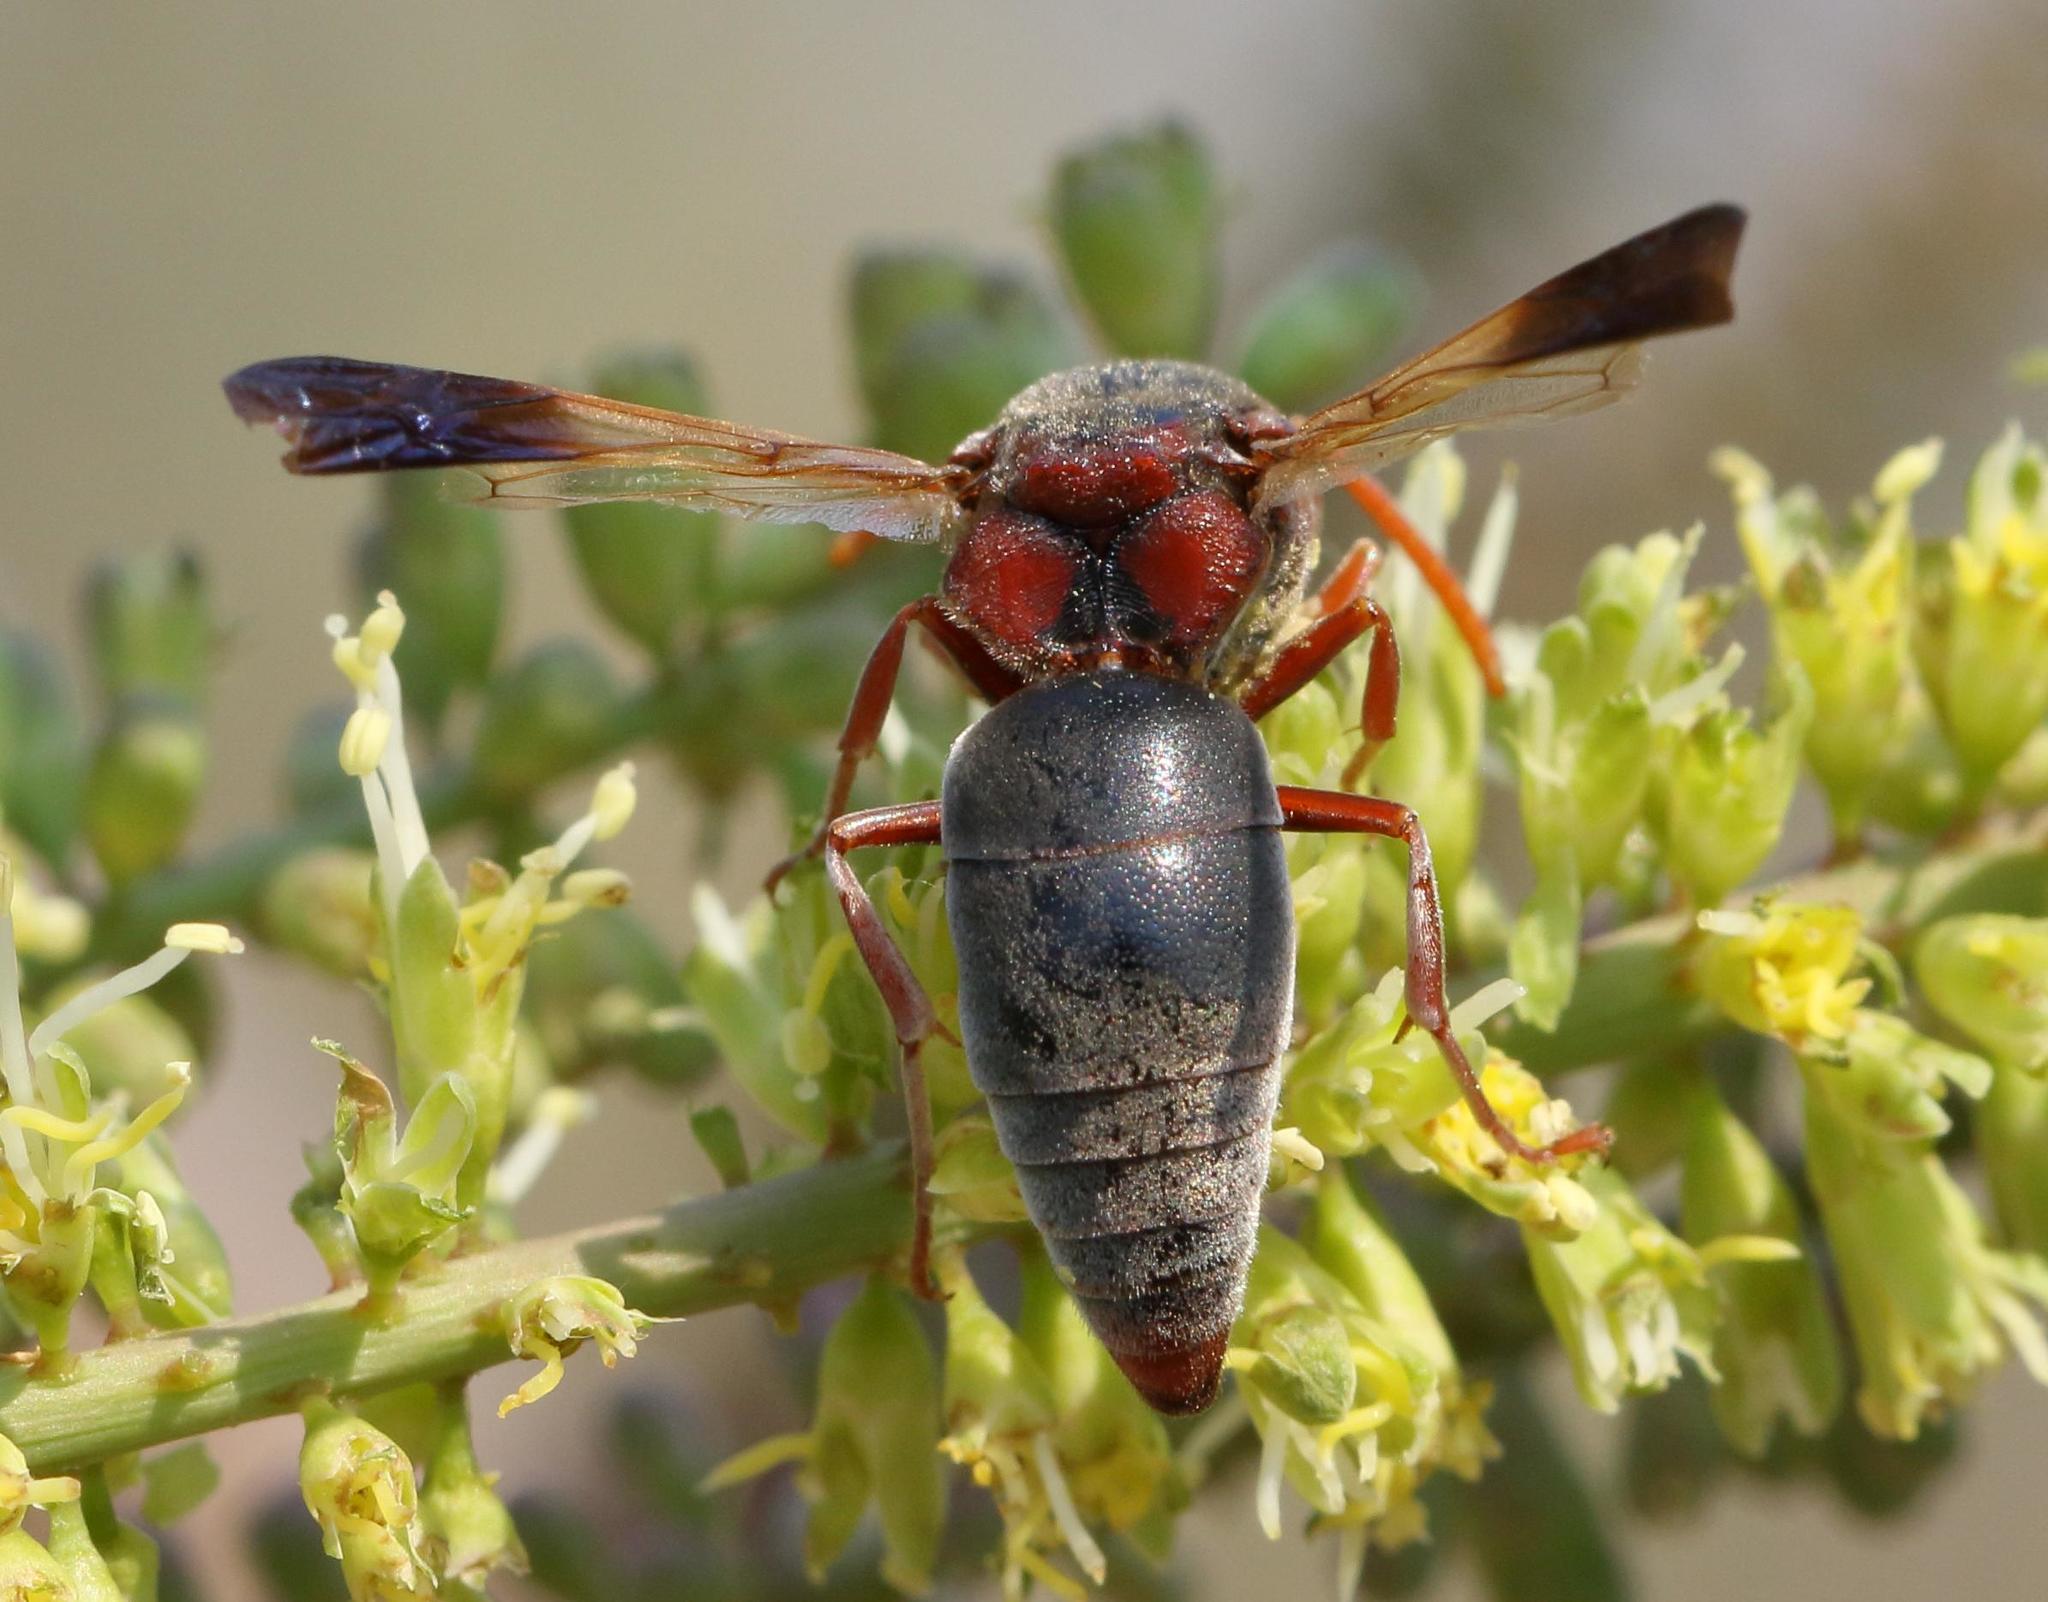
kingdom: Animalia
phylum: Arthropoda
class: Insecta
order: Hymenoptera
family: Eumenidae
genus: Rhynchium
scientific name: Rhynchium
